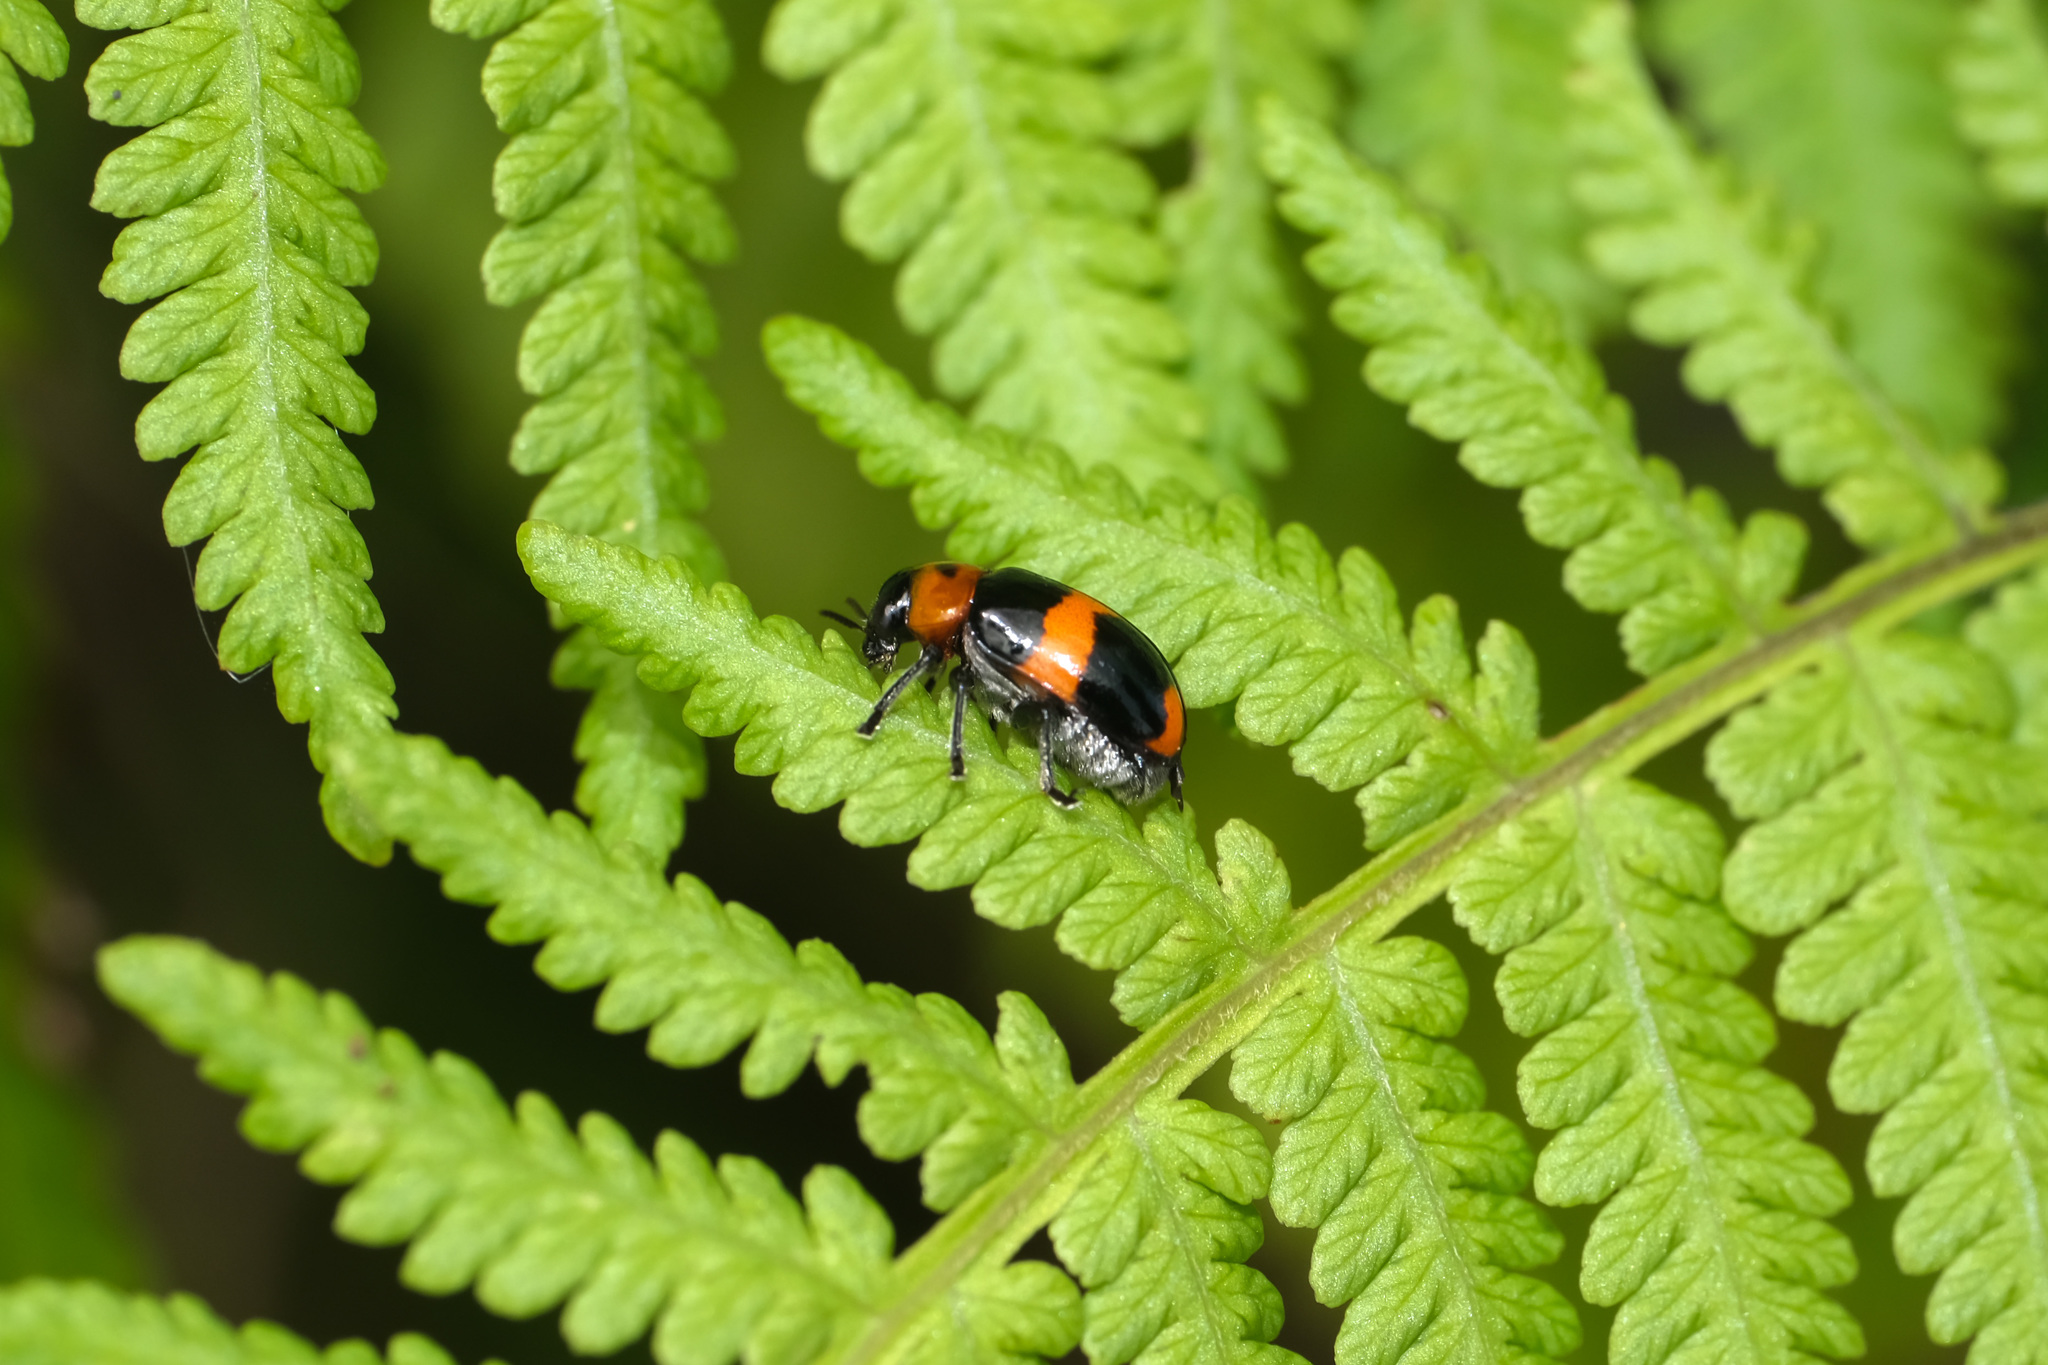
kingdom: Animalia
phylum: Arthropoda
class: Insecta
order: Coleoptera
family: Chrysomelidae
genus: Physosmaragdina
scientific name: Physosmaragdina nigrifrons
